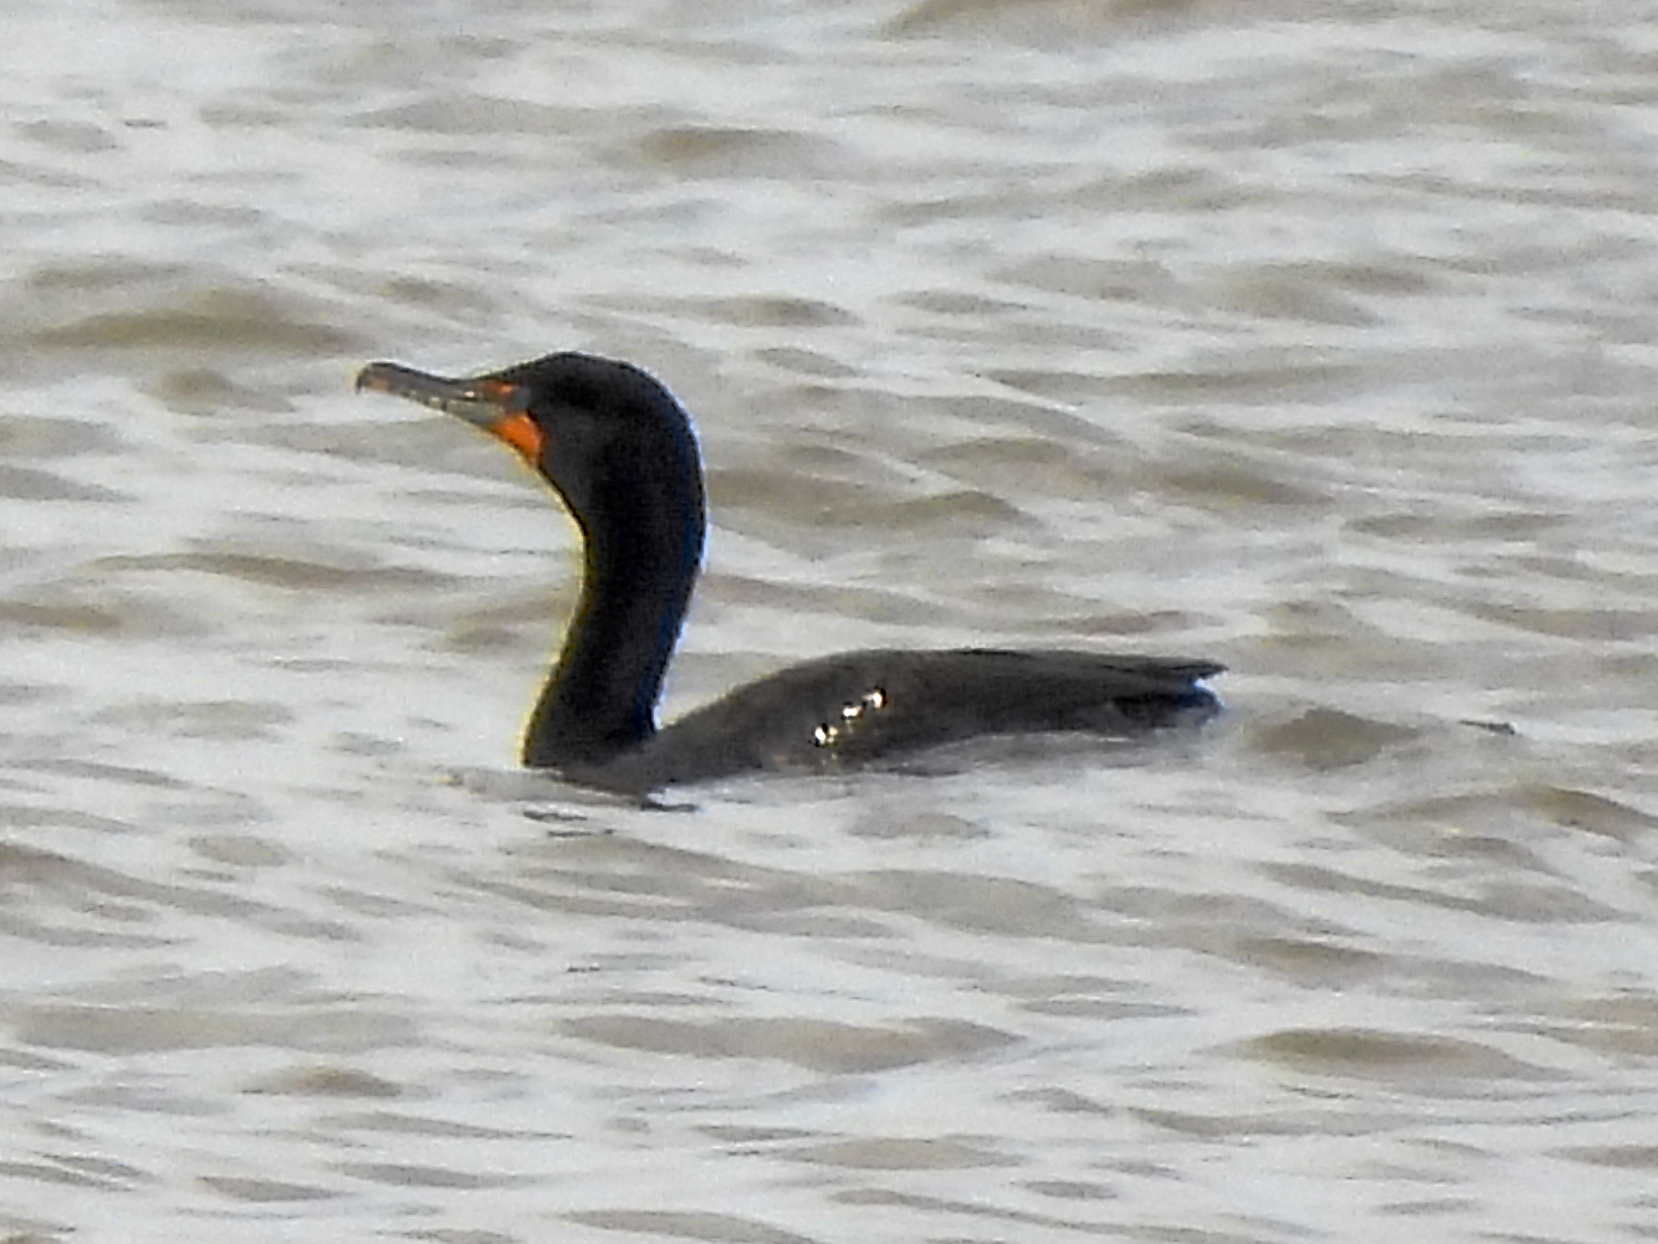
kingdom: Animalia
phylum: Chordata
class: Aves
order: Suliformes
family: Phalacrocoracidae
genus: Phalacrocorax
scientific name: Phalacrocorax auritus
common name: Double-crested cormorant
